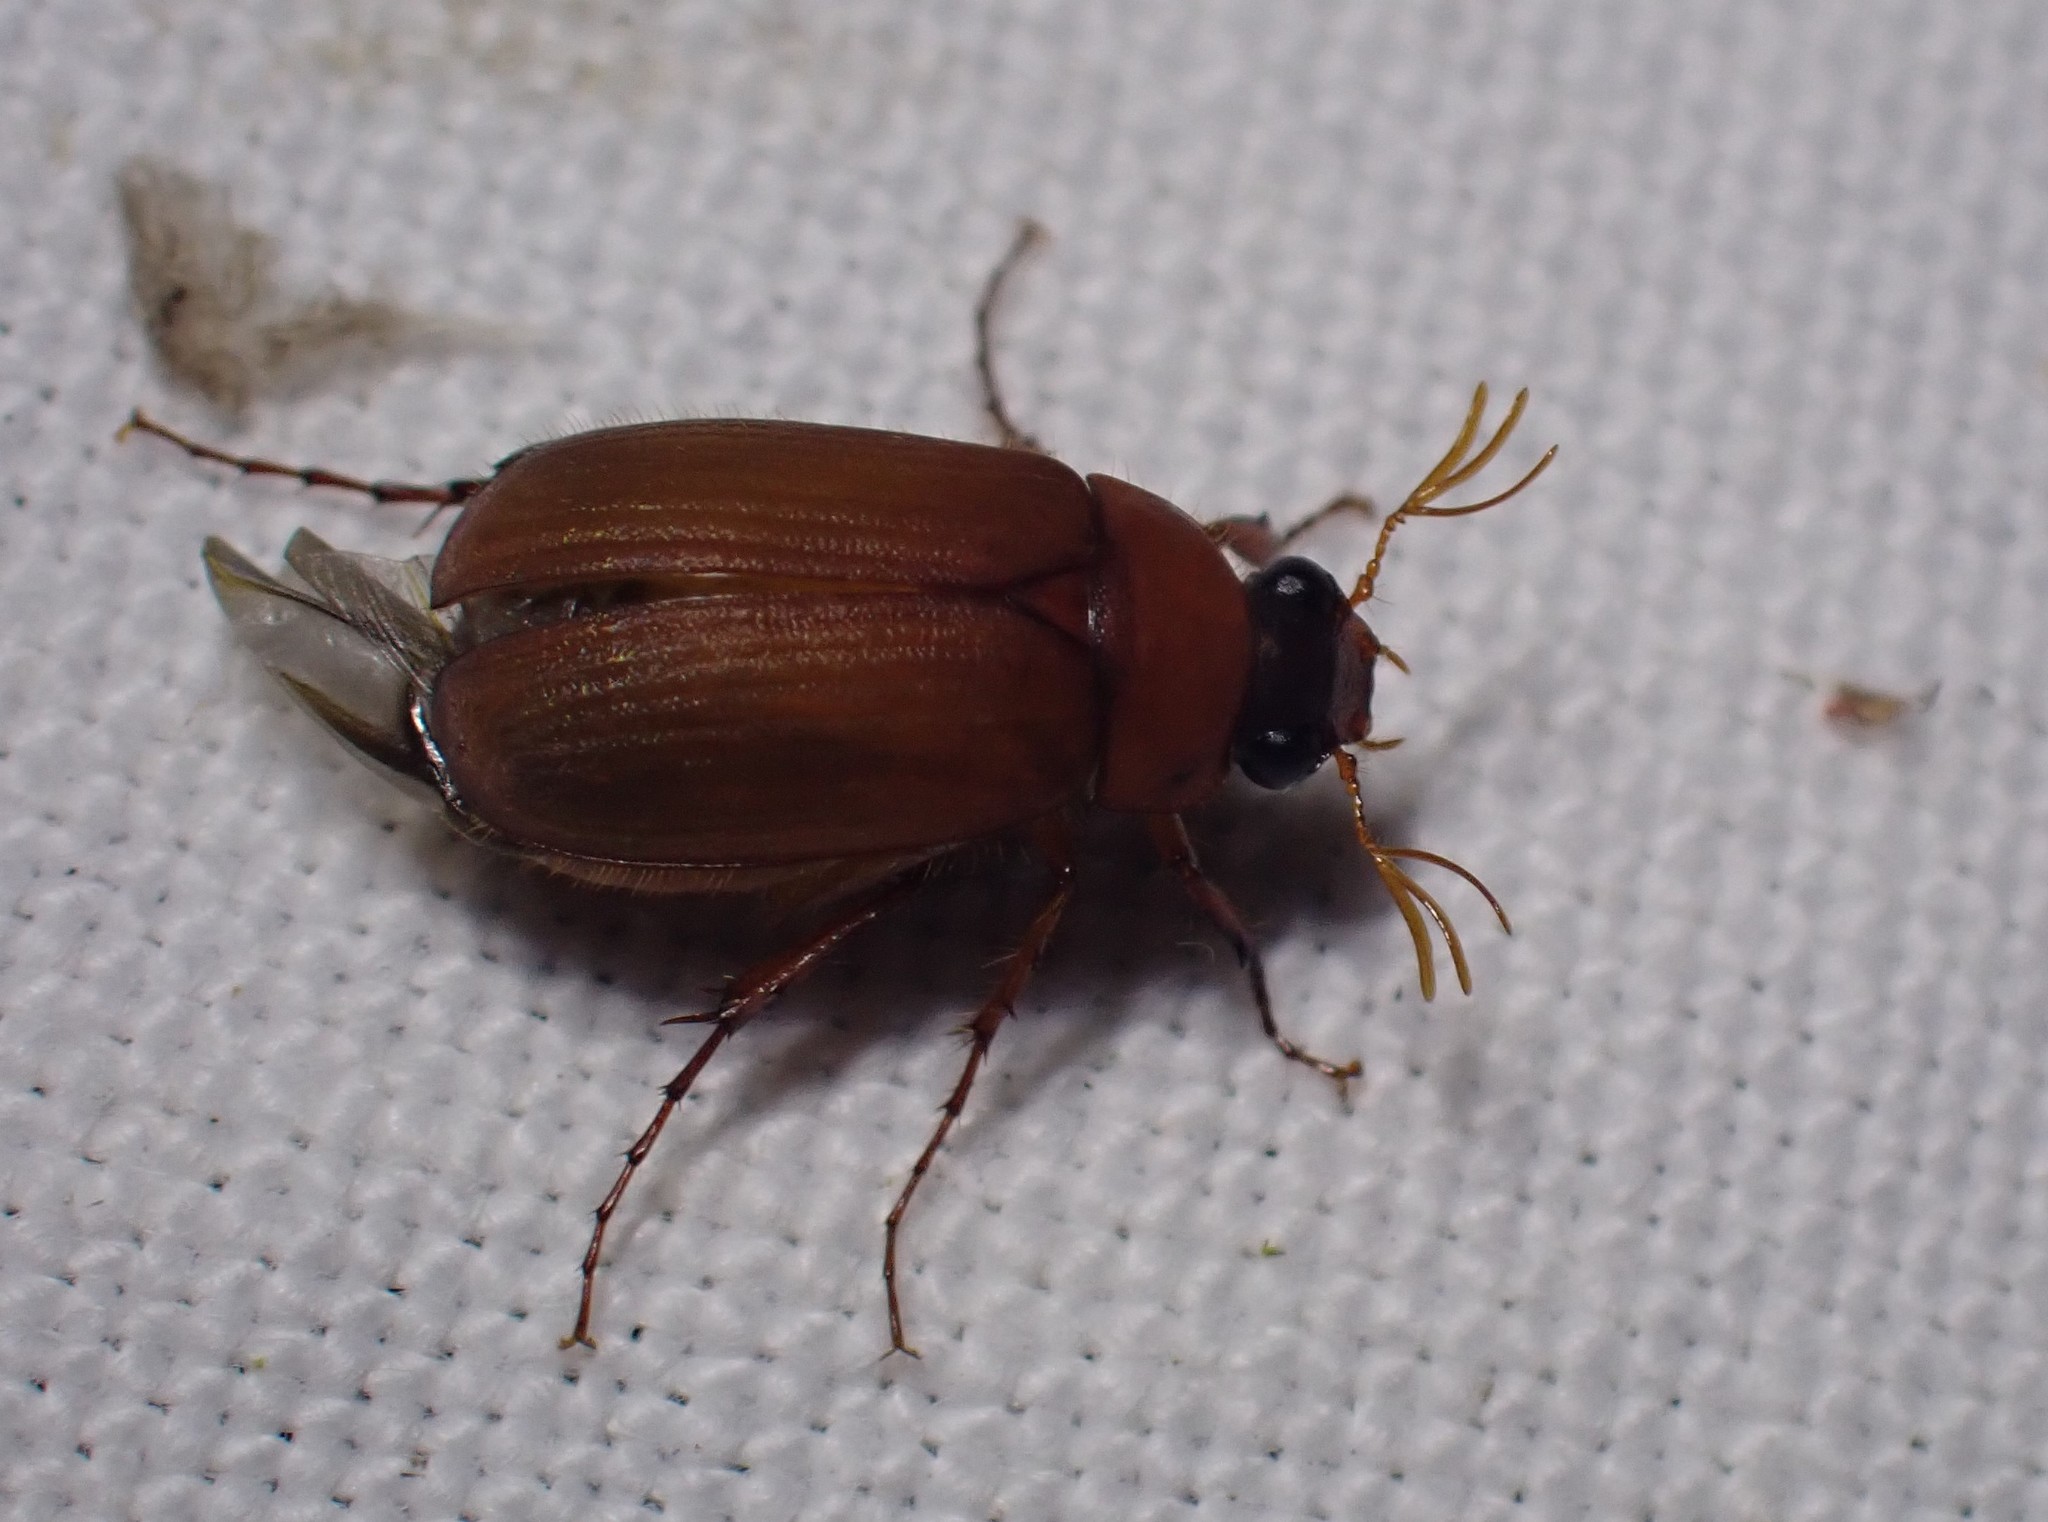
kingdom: Animalia
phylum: Arthropoda
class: Insecta
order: Coleoptera
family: Scarabaeidae
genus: Serica
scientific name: Serica brunnea
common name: Brown chafer
